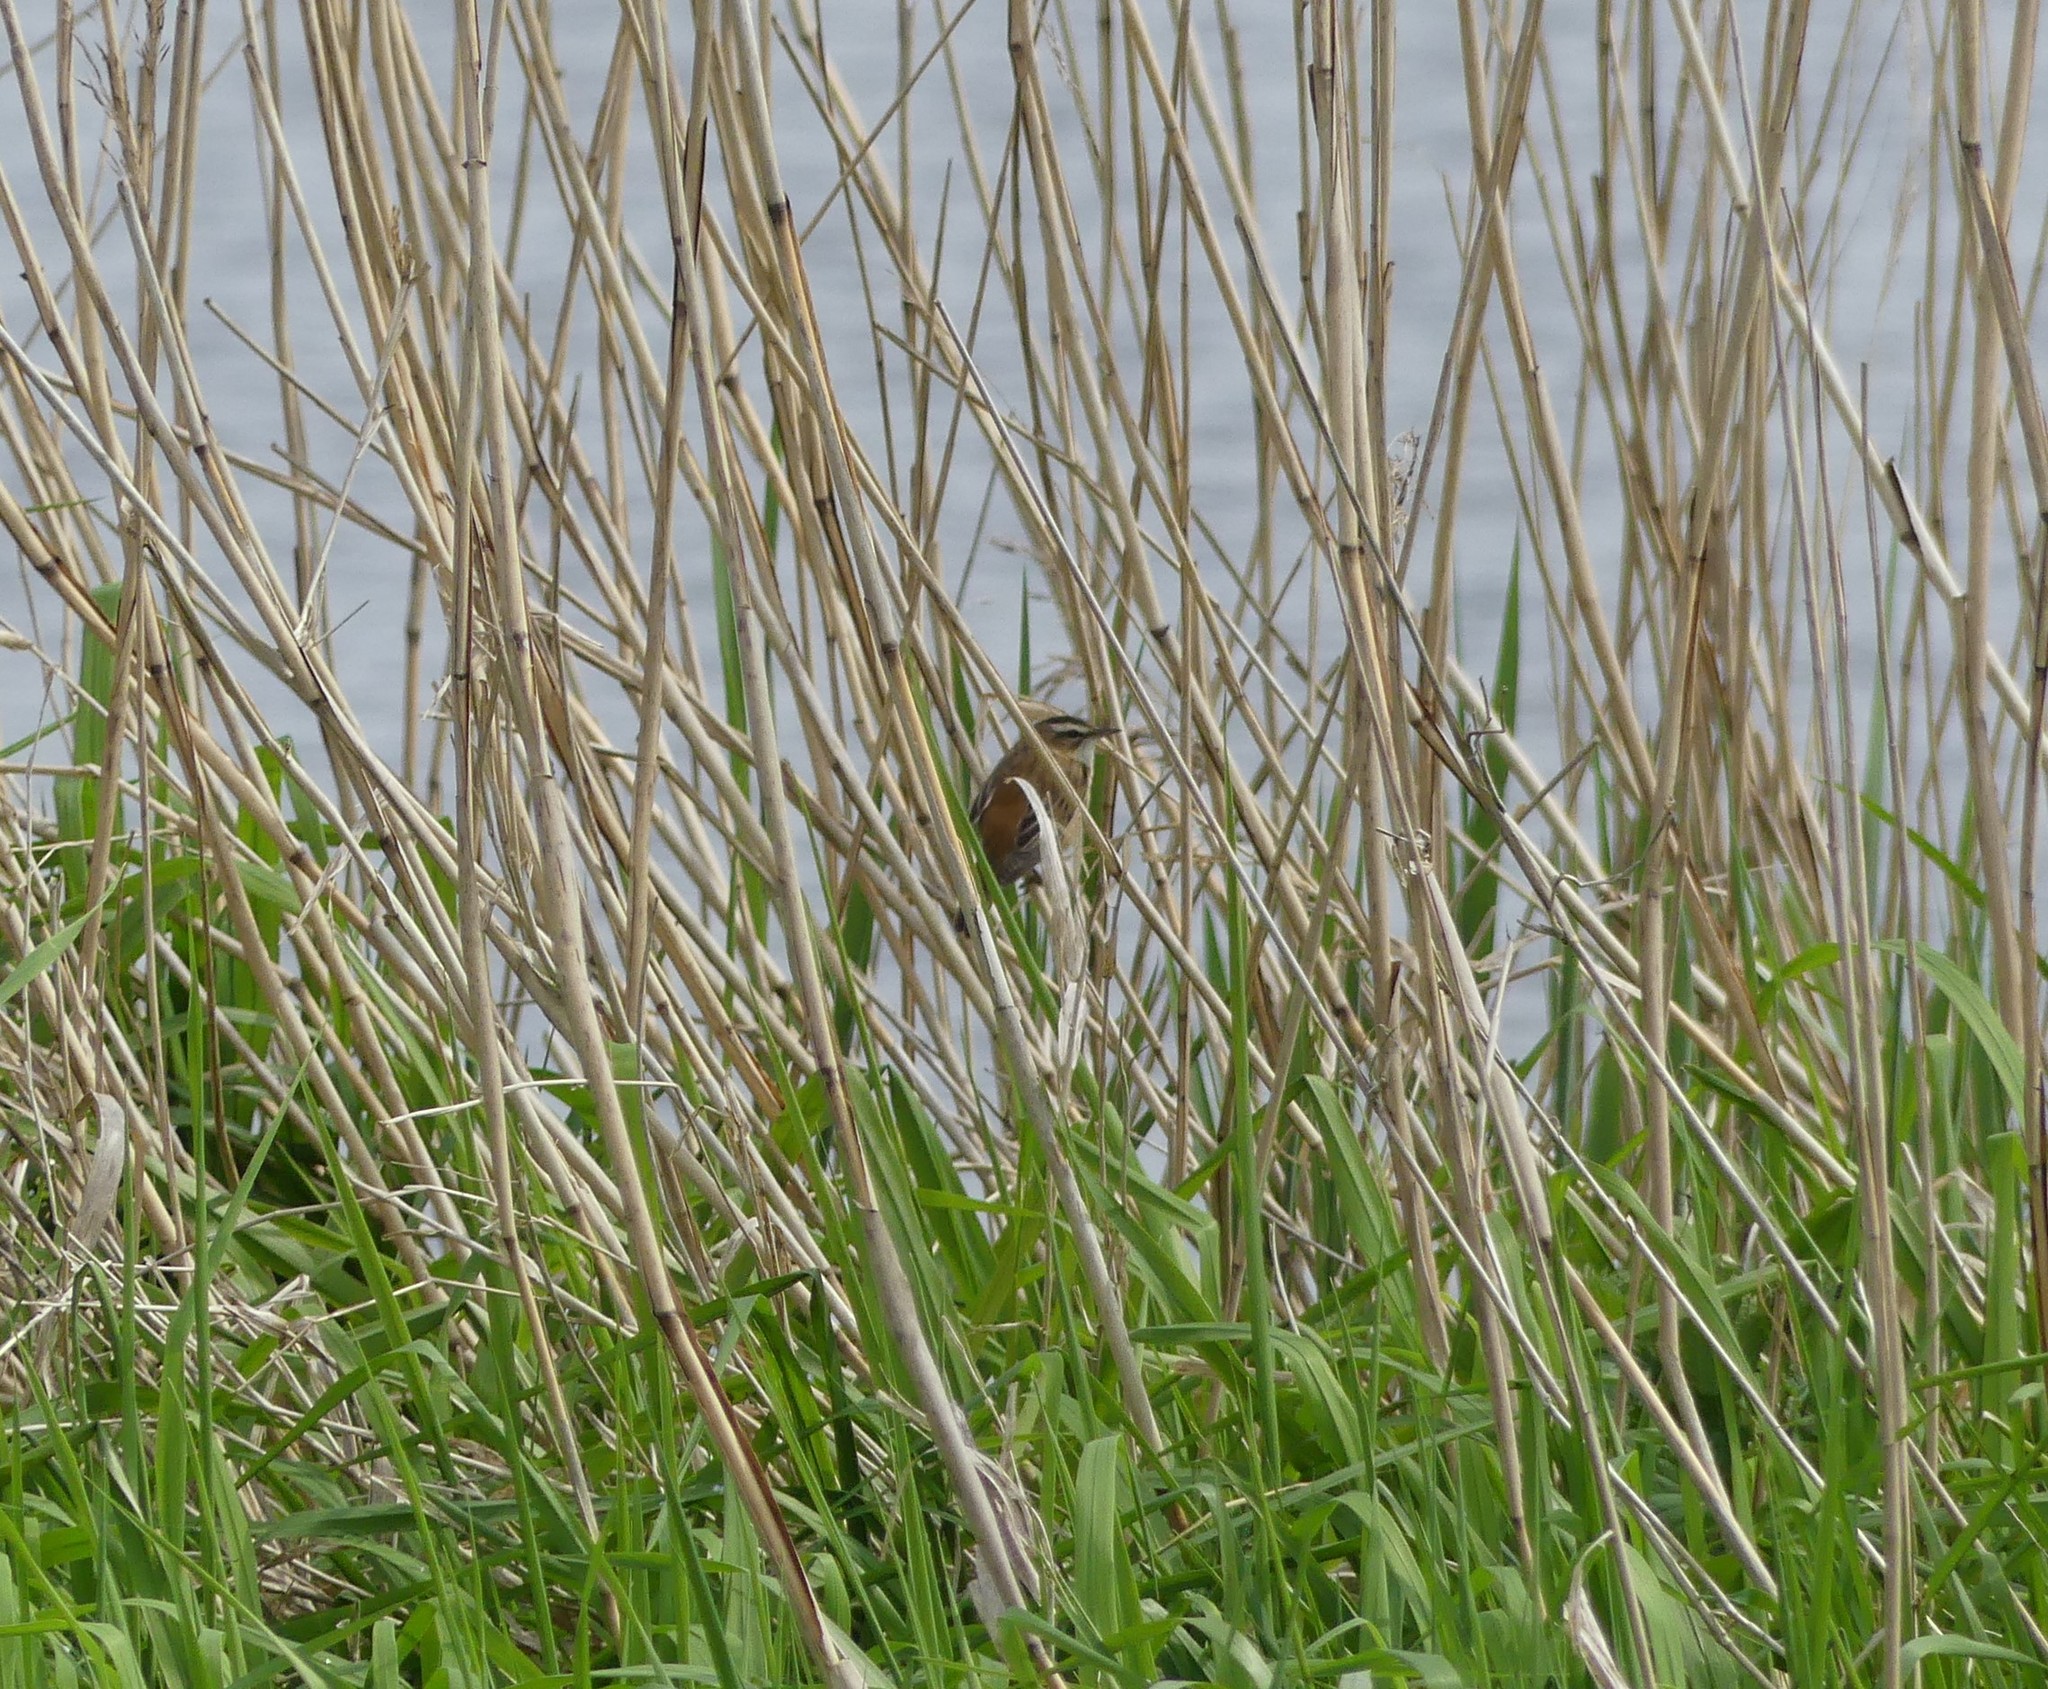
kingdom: Animalia
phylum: Chordata
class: Aves
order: Passeriformes
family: Acrocephalidae
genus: Acrocephalus
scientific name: Acrocephalus schoenobaenus
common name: Sedge warbler
